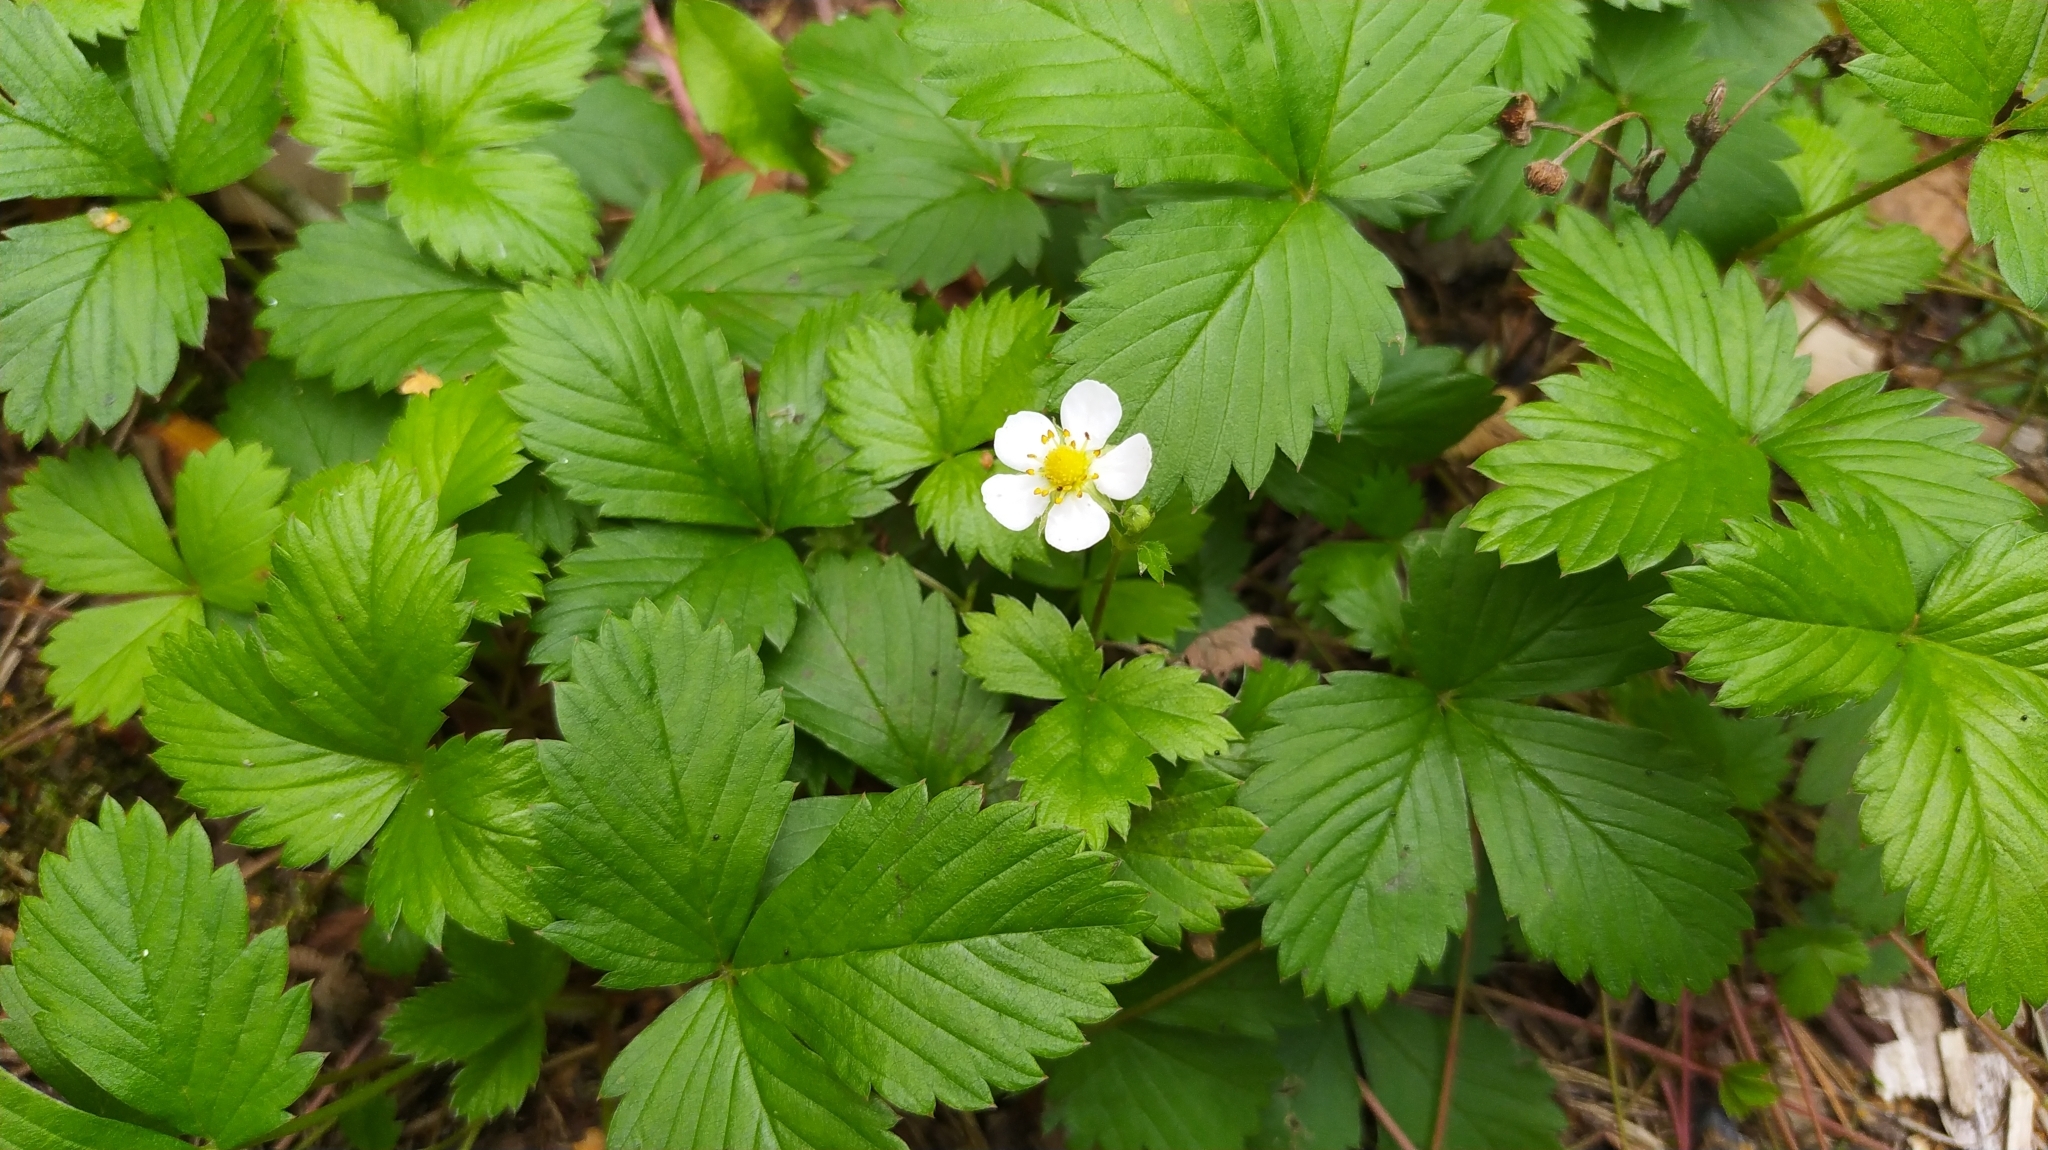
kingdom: Plantae
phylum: Tracheophyta
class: Magnoliopsida
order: Rosales
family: Rosaceae
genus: Fragaria
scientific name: Fragaria vesca
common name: Wild strawberry
